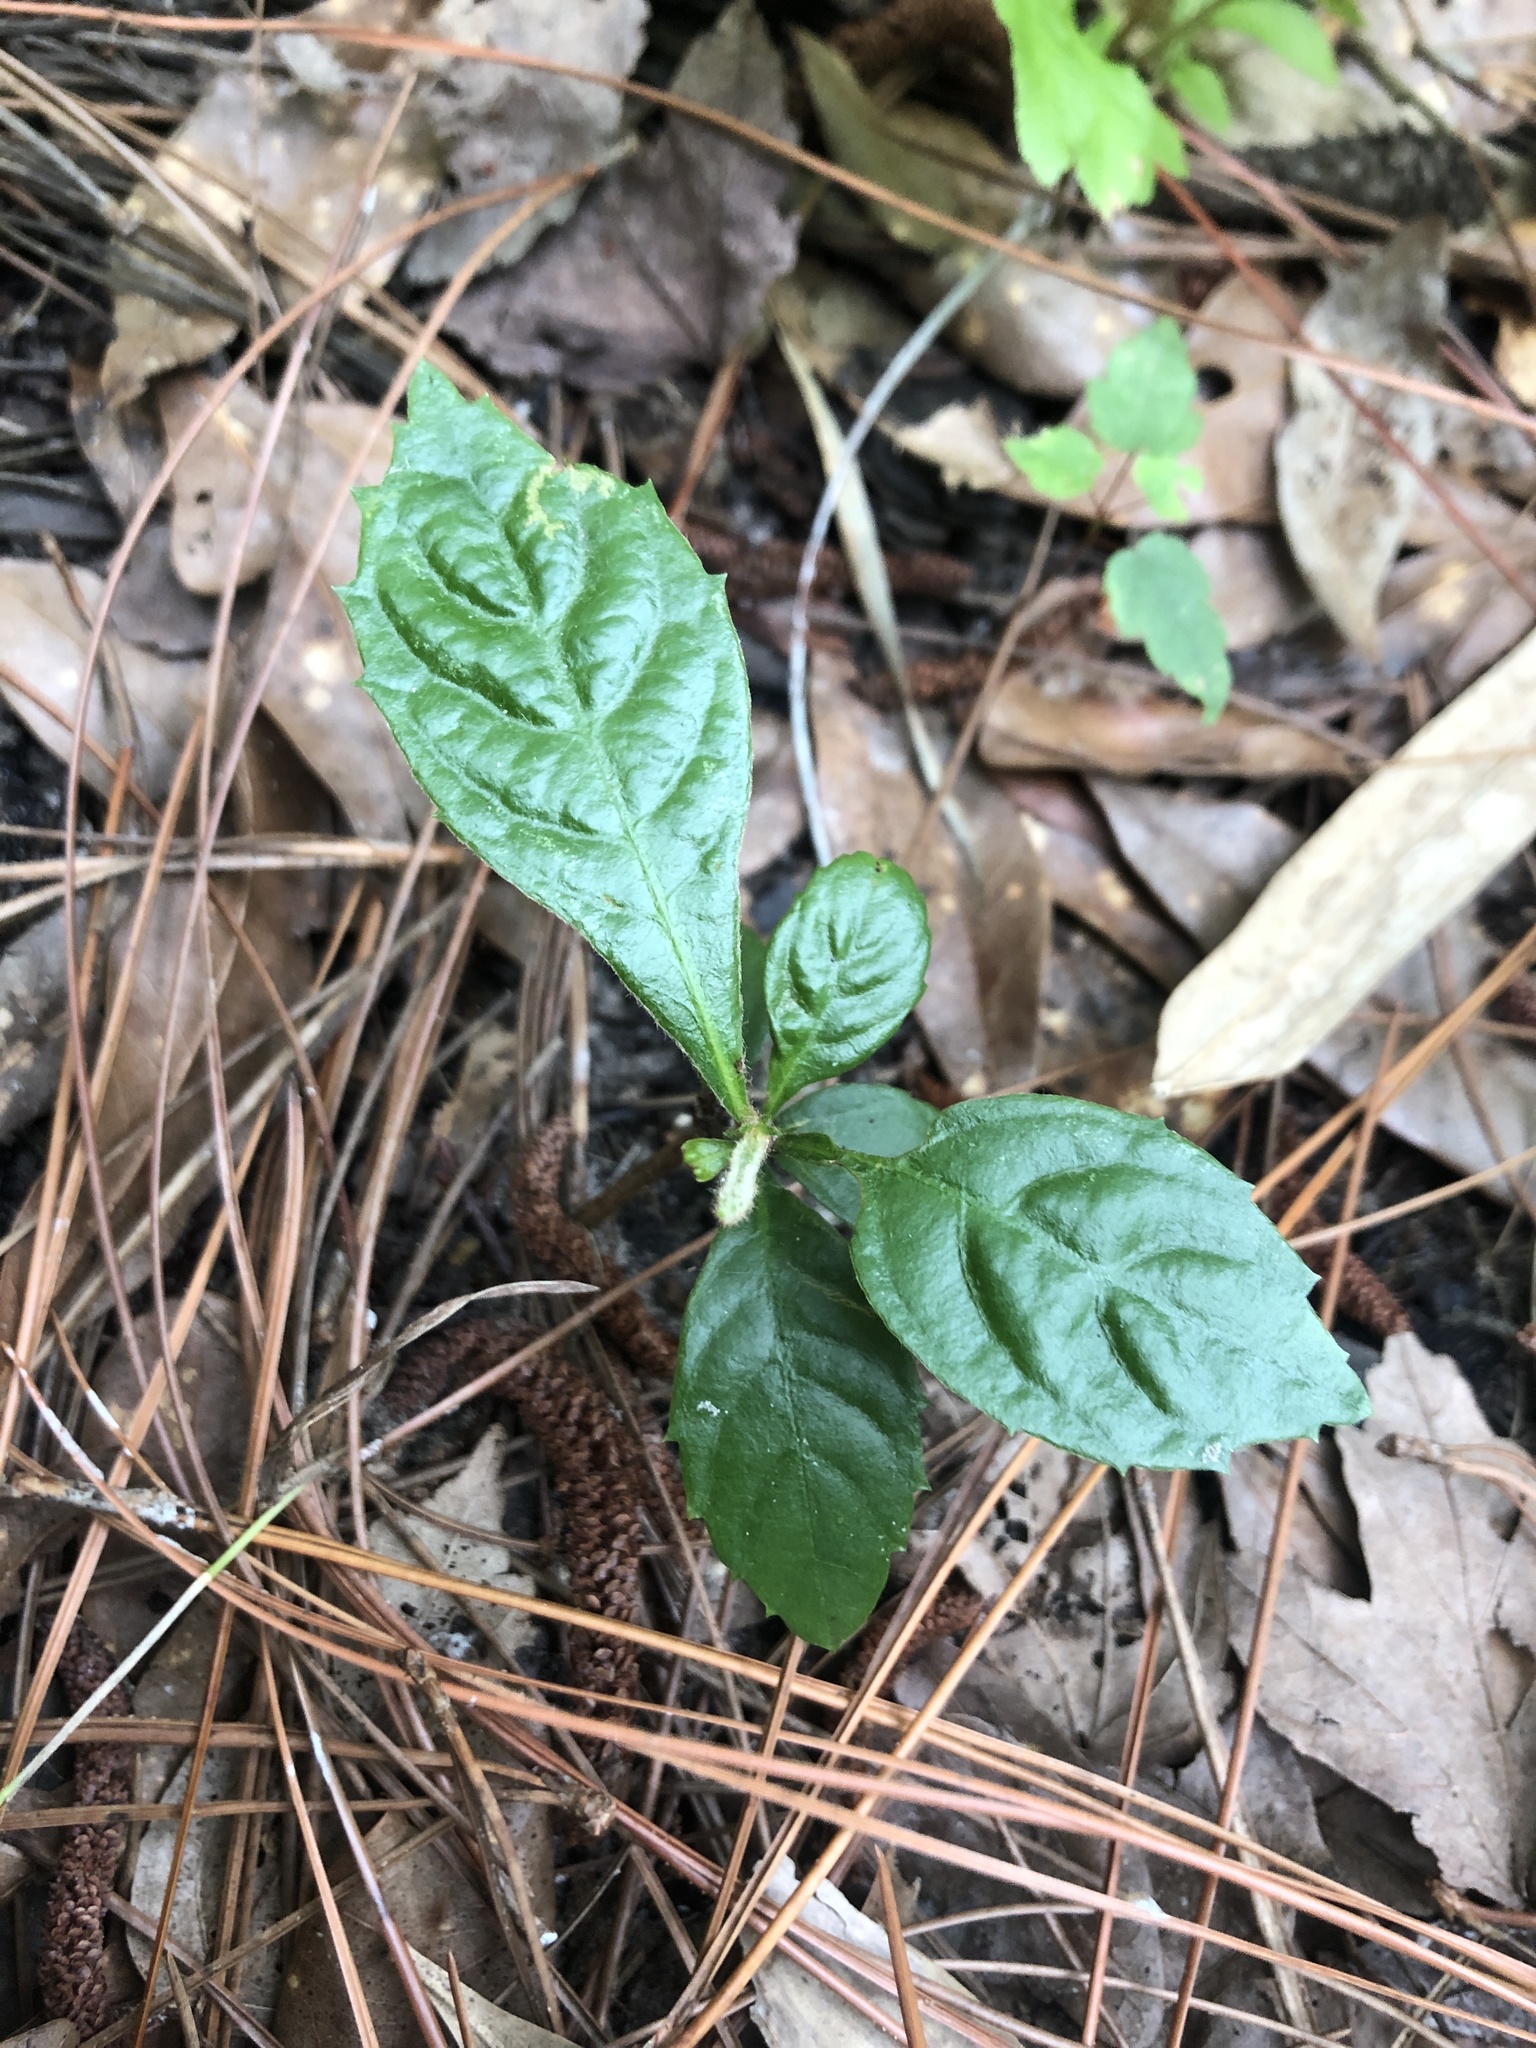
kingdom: Plantae
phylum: Tracheophyta
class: Magnoliopsida
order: Rosales
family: Rosaceae
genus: Rhaphiolepis
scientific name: Rhaphiolepis bibas
